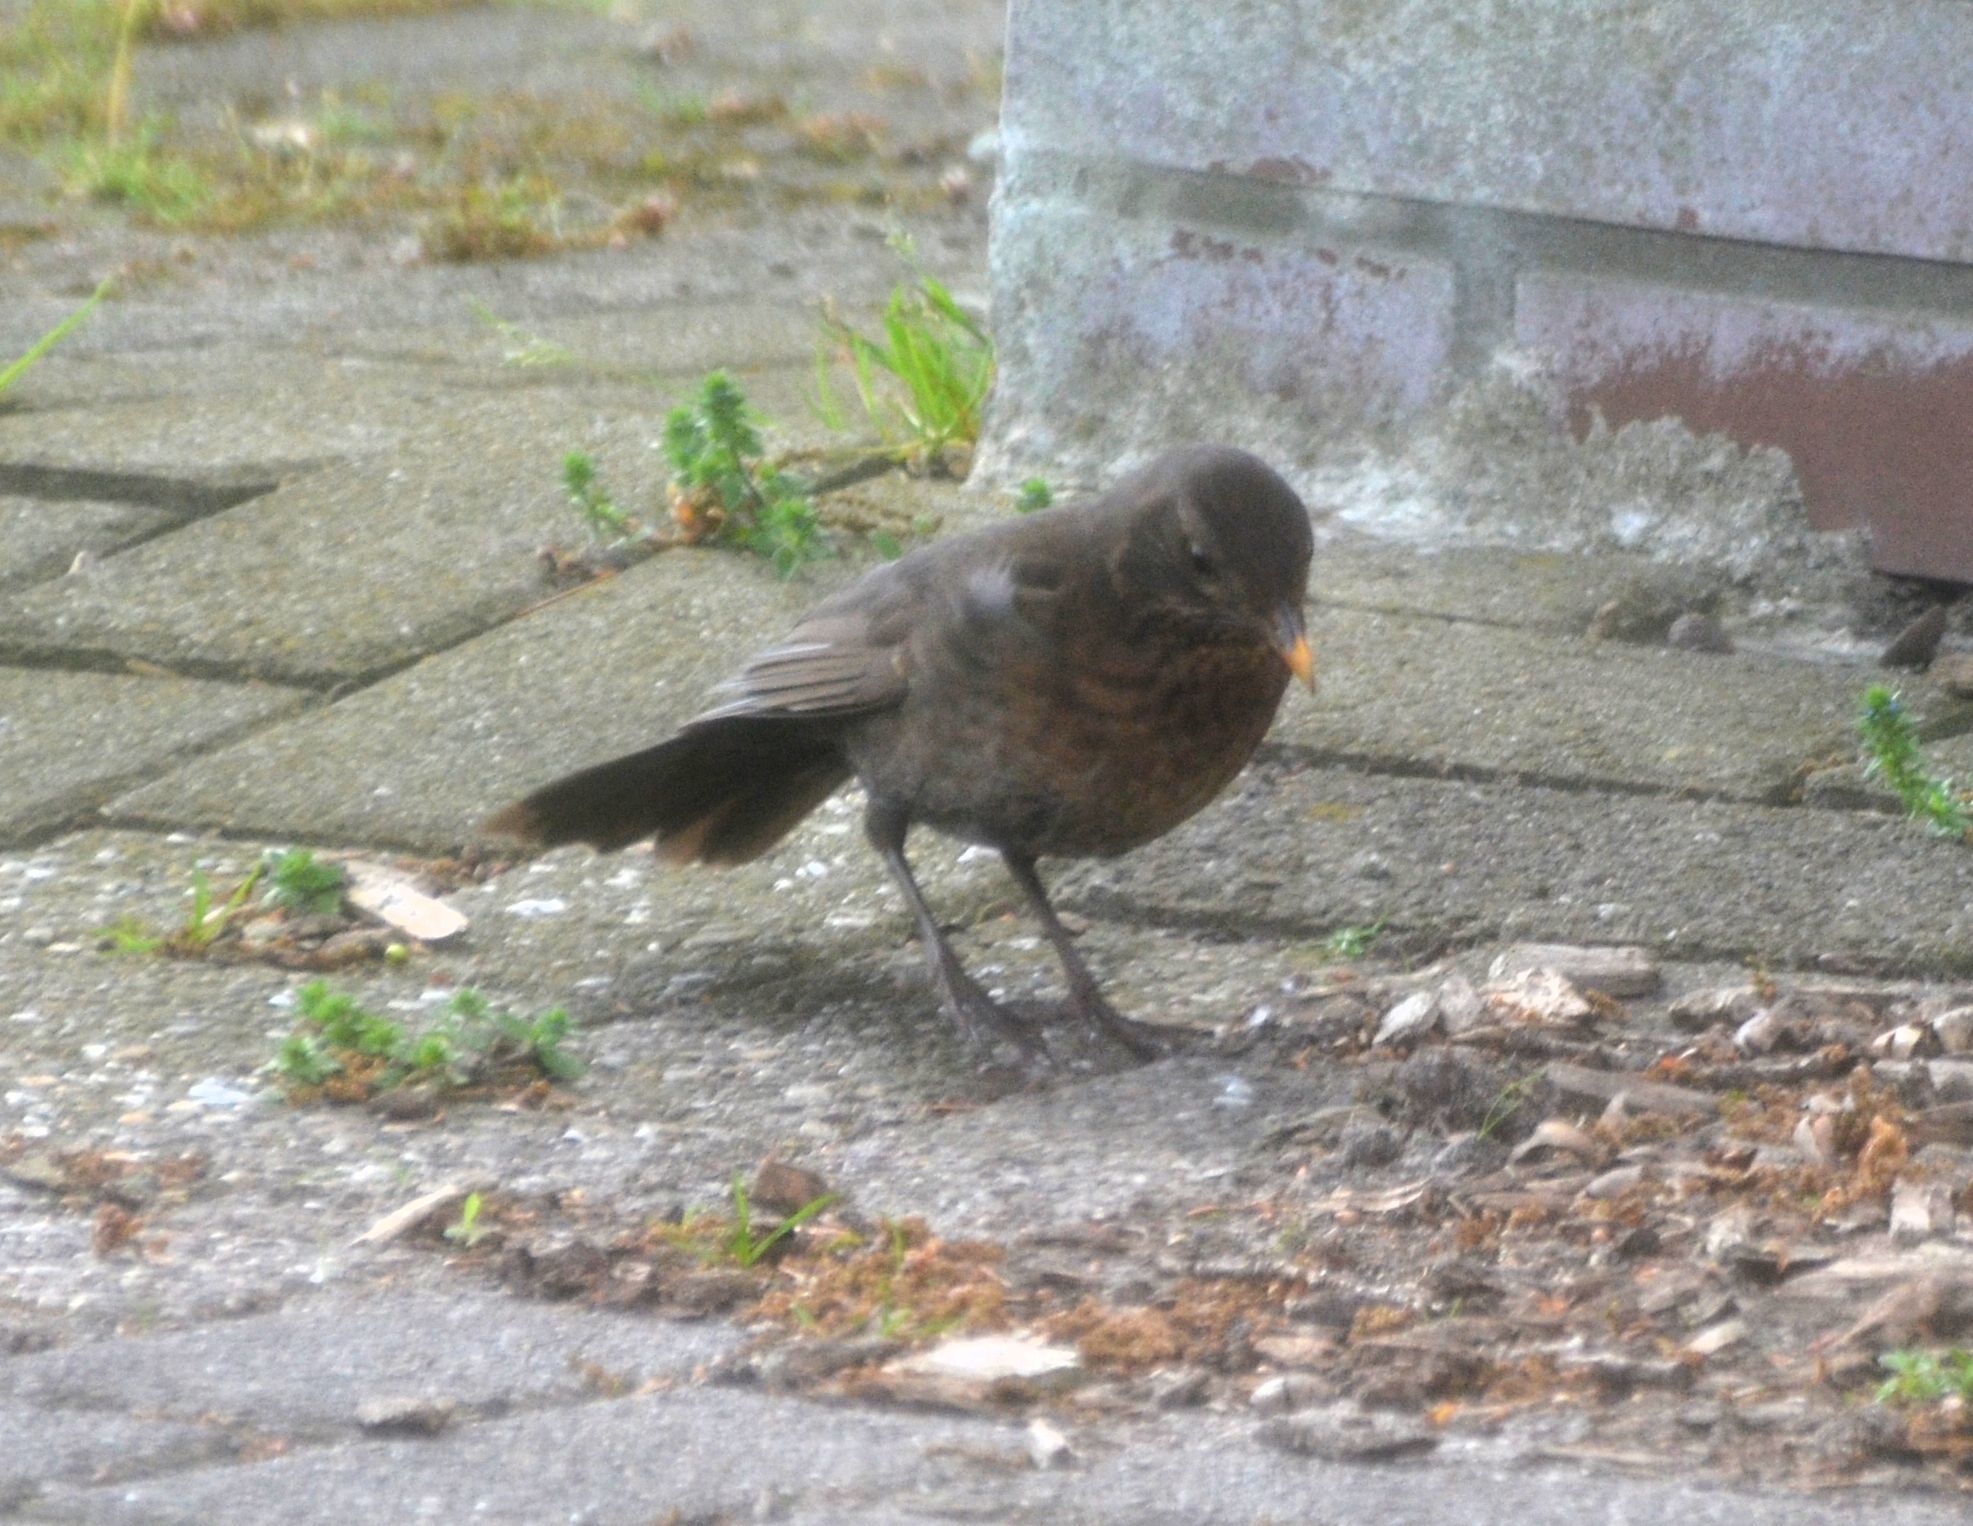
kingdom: Animalia
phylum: Chordata
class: Aves
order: Passeriformes
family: Turdidae
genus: Turdus
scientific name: Turdus merula
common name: Common blackbird
